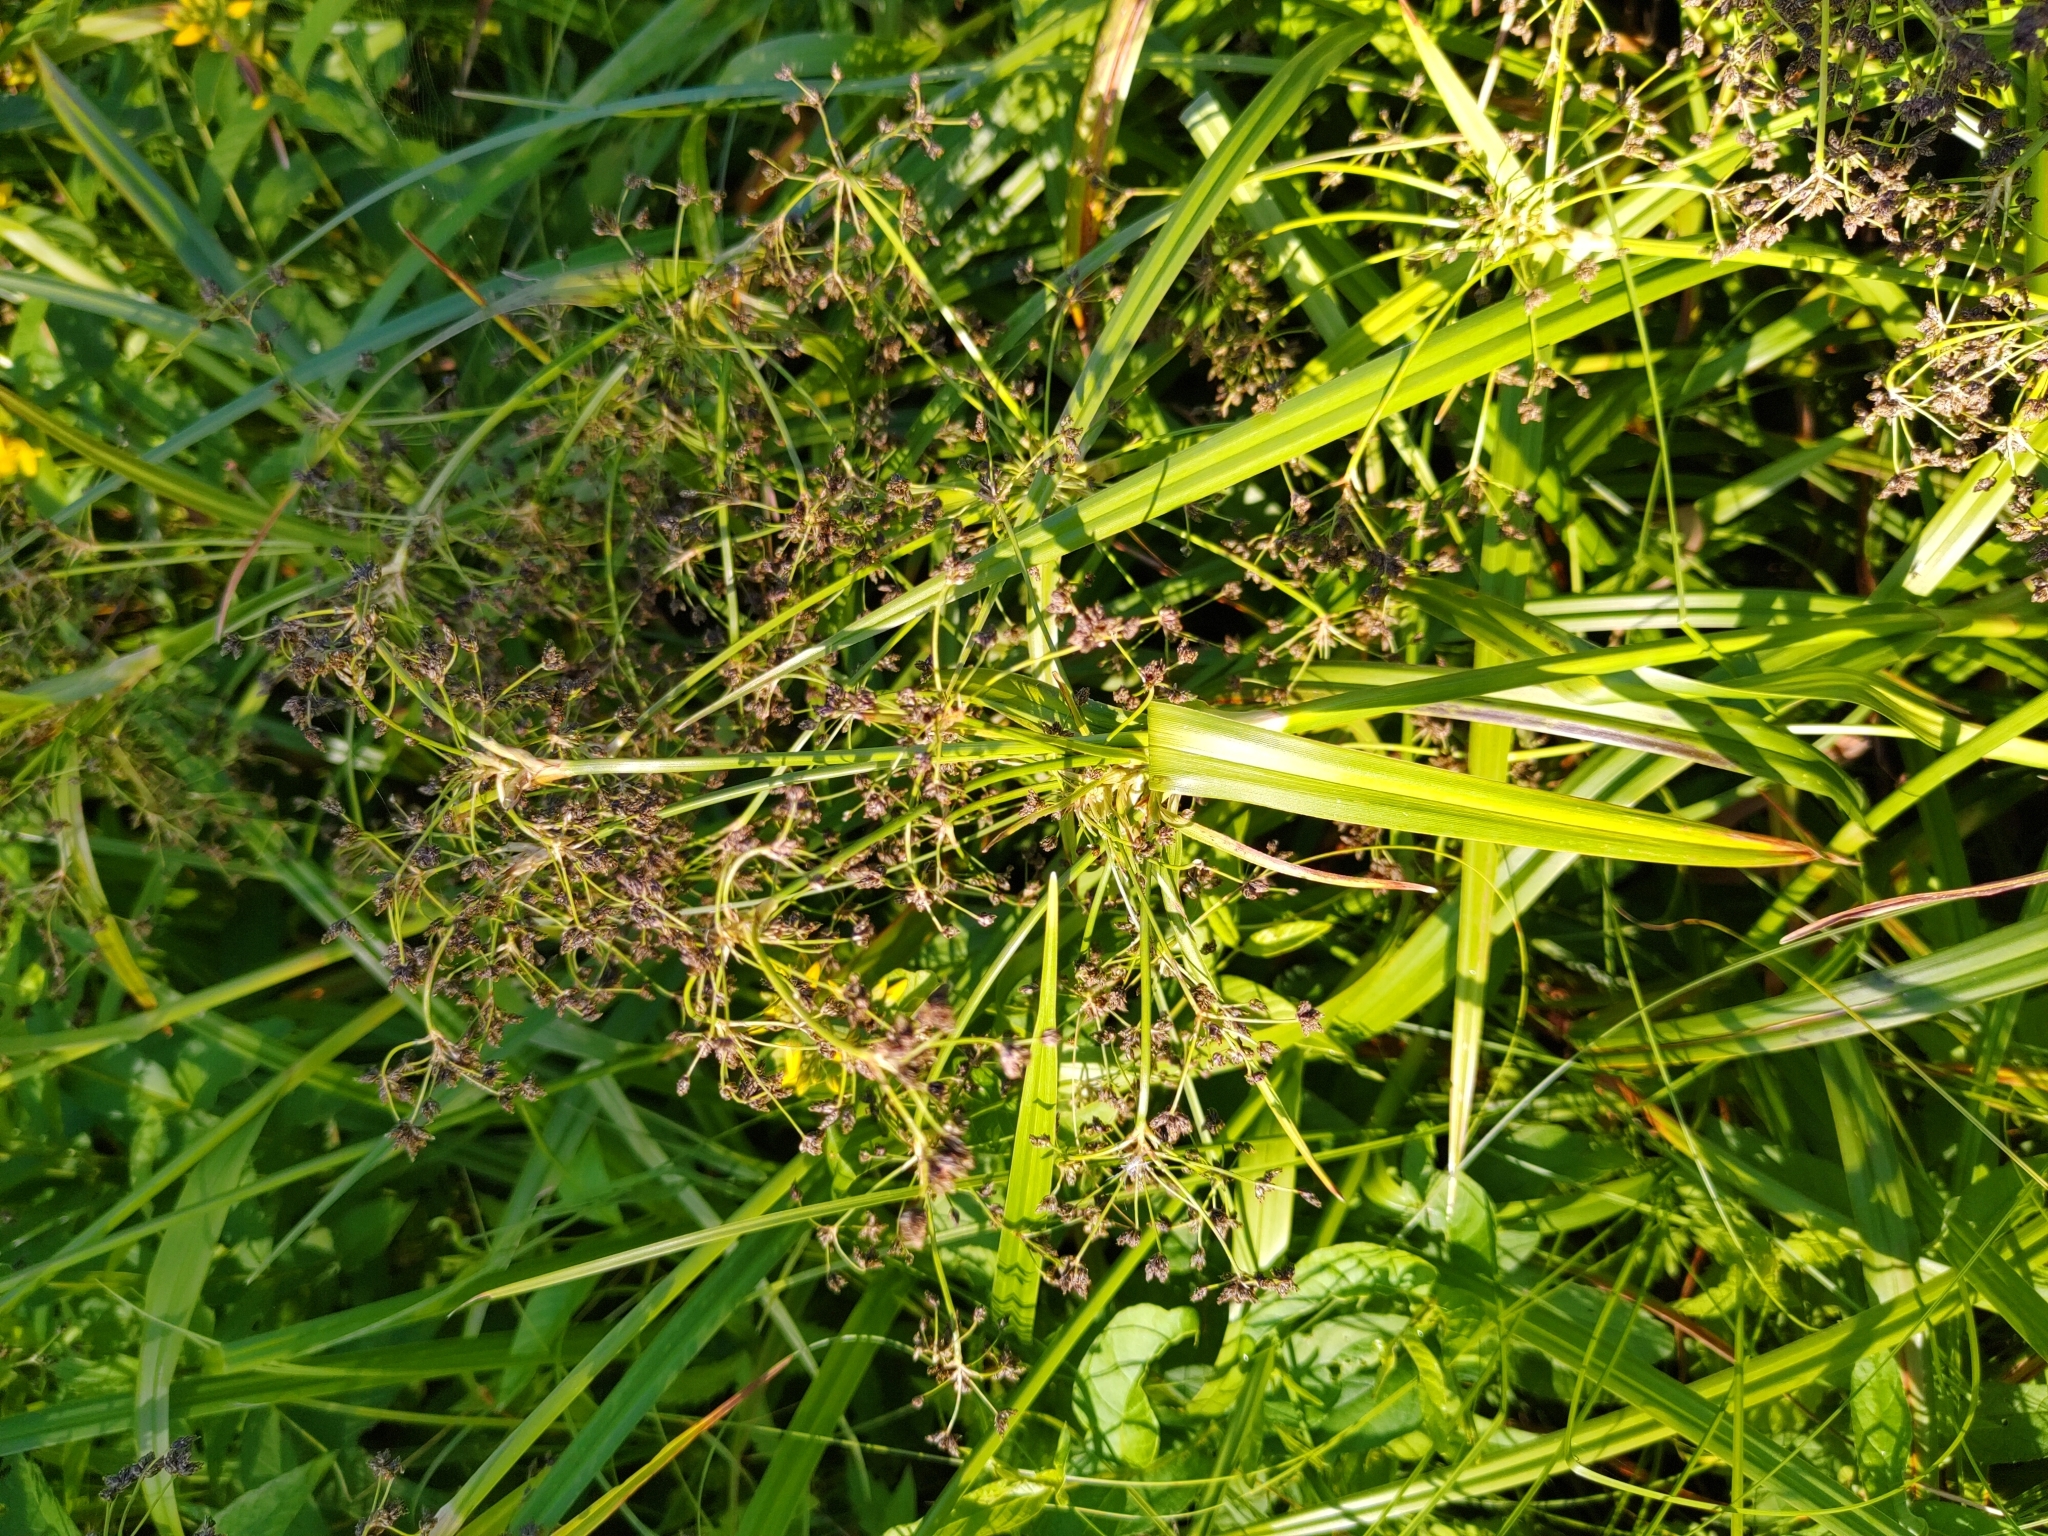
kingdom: Plantae
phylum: Tracheophyta
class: Liliopsida
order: Poales
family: Cyperaceae
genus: Scirpus
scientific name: Scirpus sylvaticus
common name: Wood club-rush
